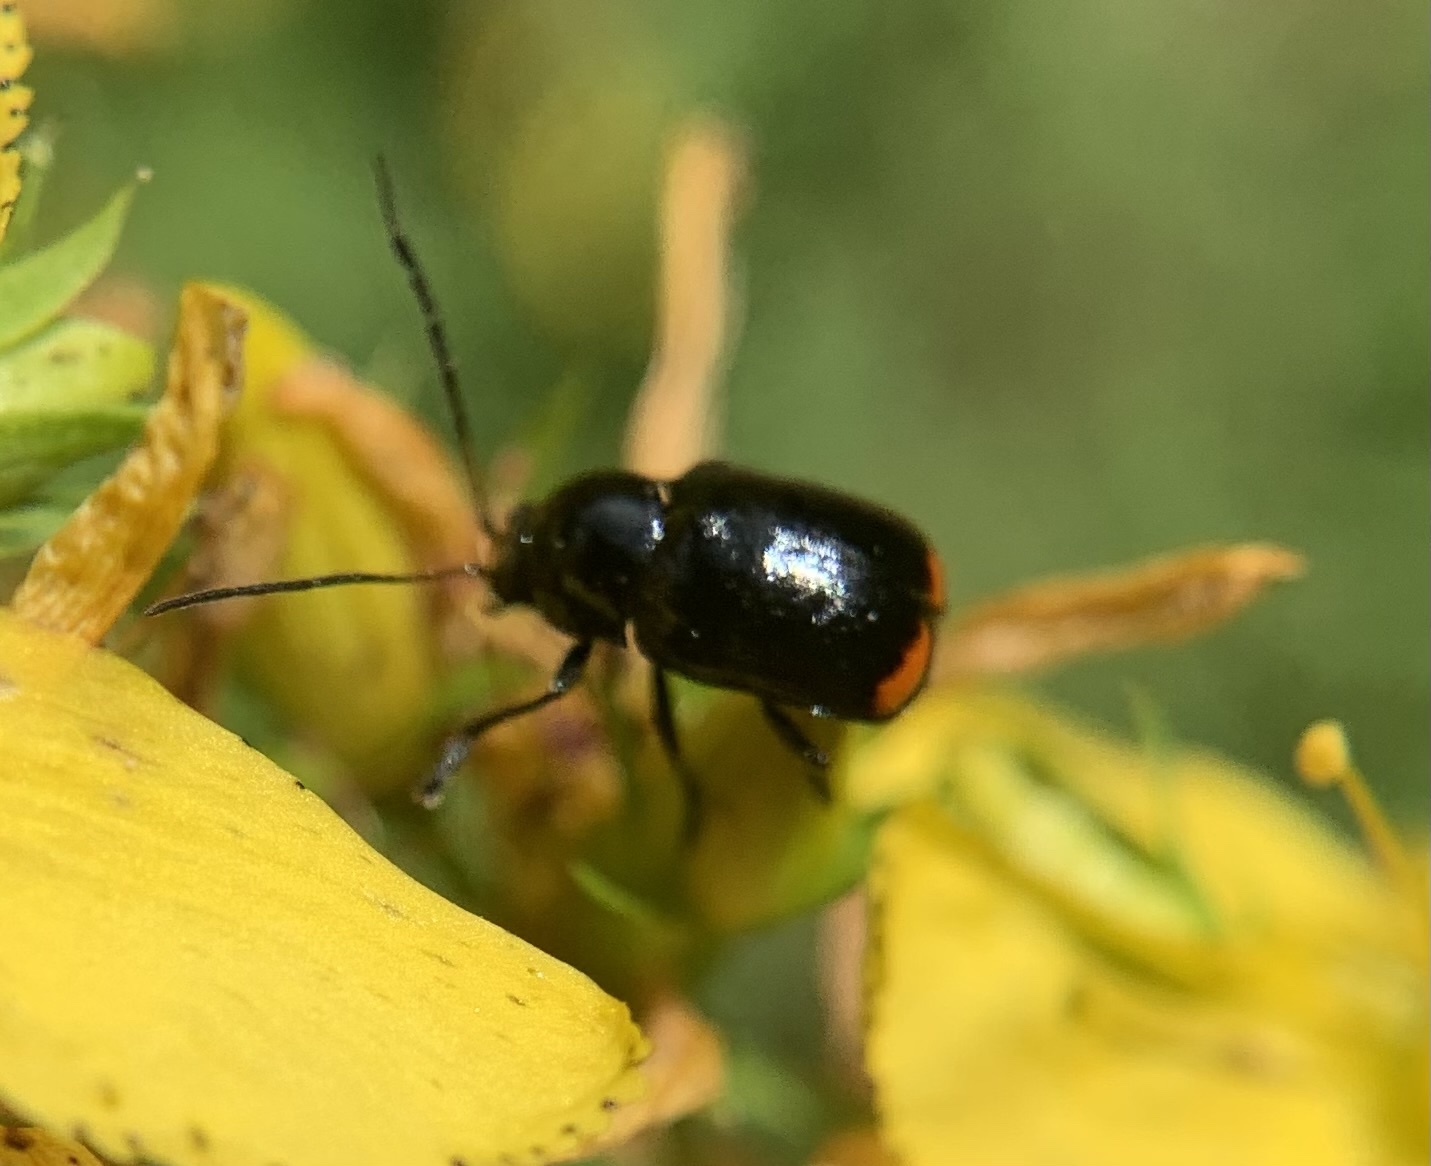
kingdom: Animalia
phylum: Arthropoda
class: Insecta
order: Coleoptera
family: Chrysomelidae
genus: Cryptocephalus
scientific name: Cryptocephalus biguttatus
